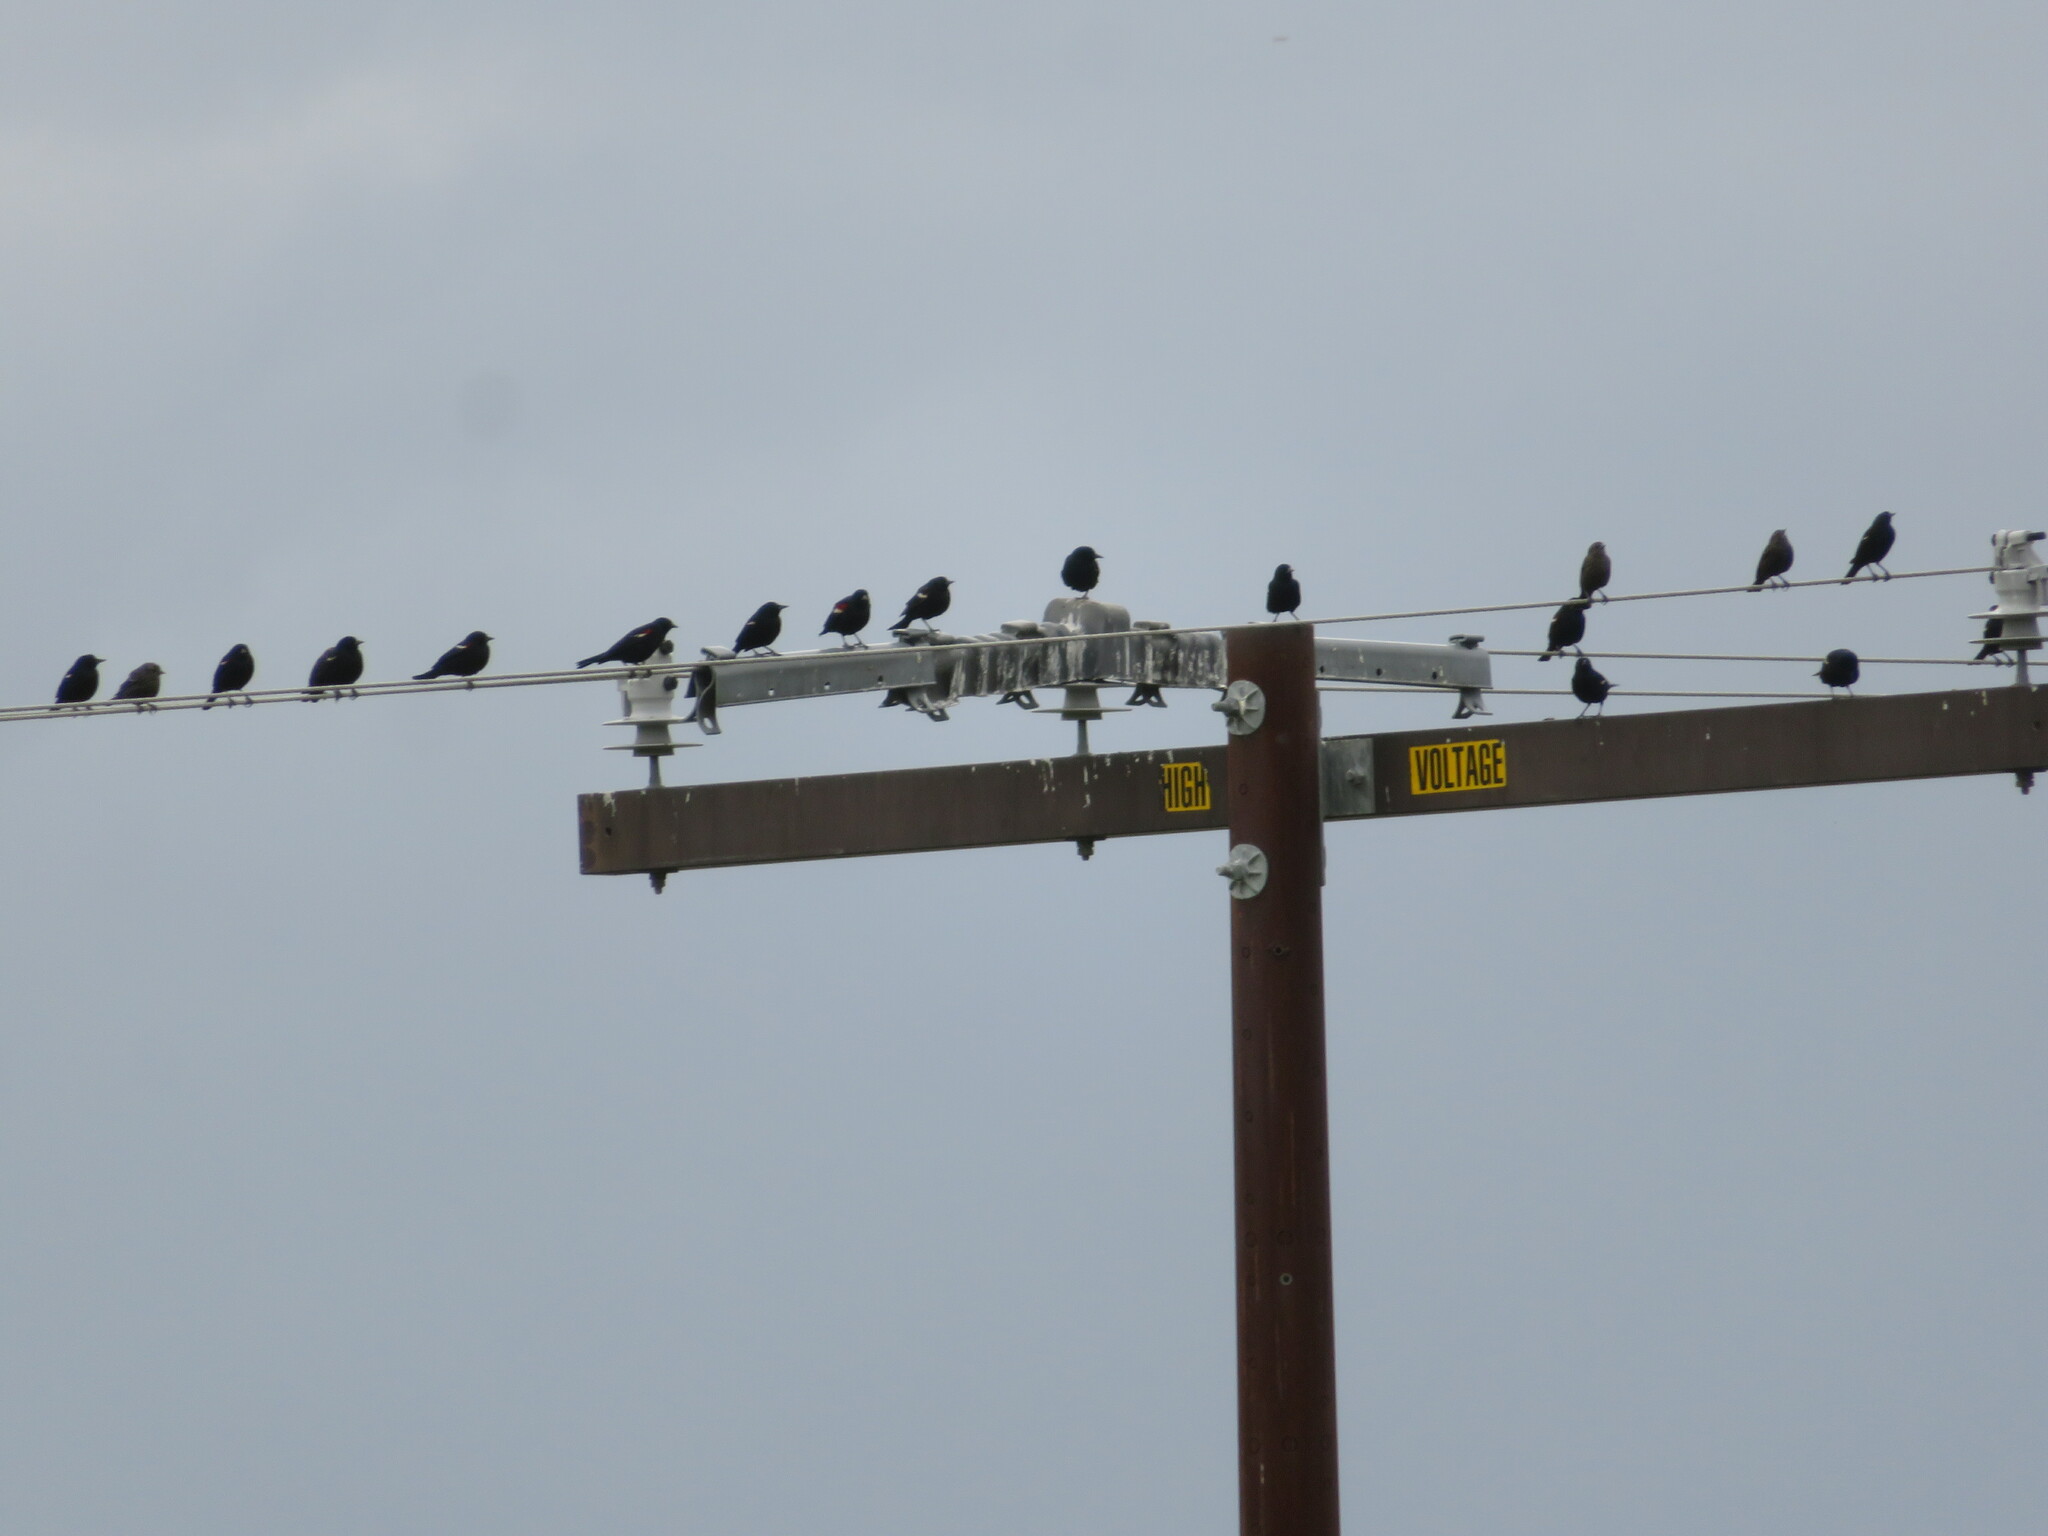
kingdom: Animalia
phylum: Chordata
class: Aves
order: Passeriformes
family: Icteridae
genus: Agelaius
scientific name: Agelaius tricolor
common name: Tricolored blackbird
